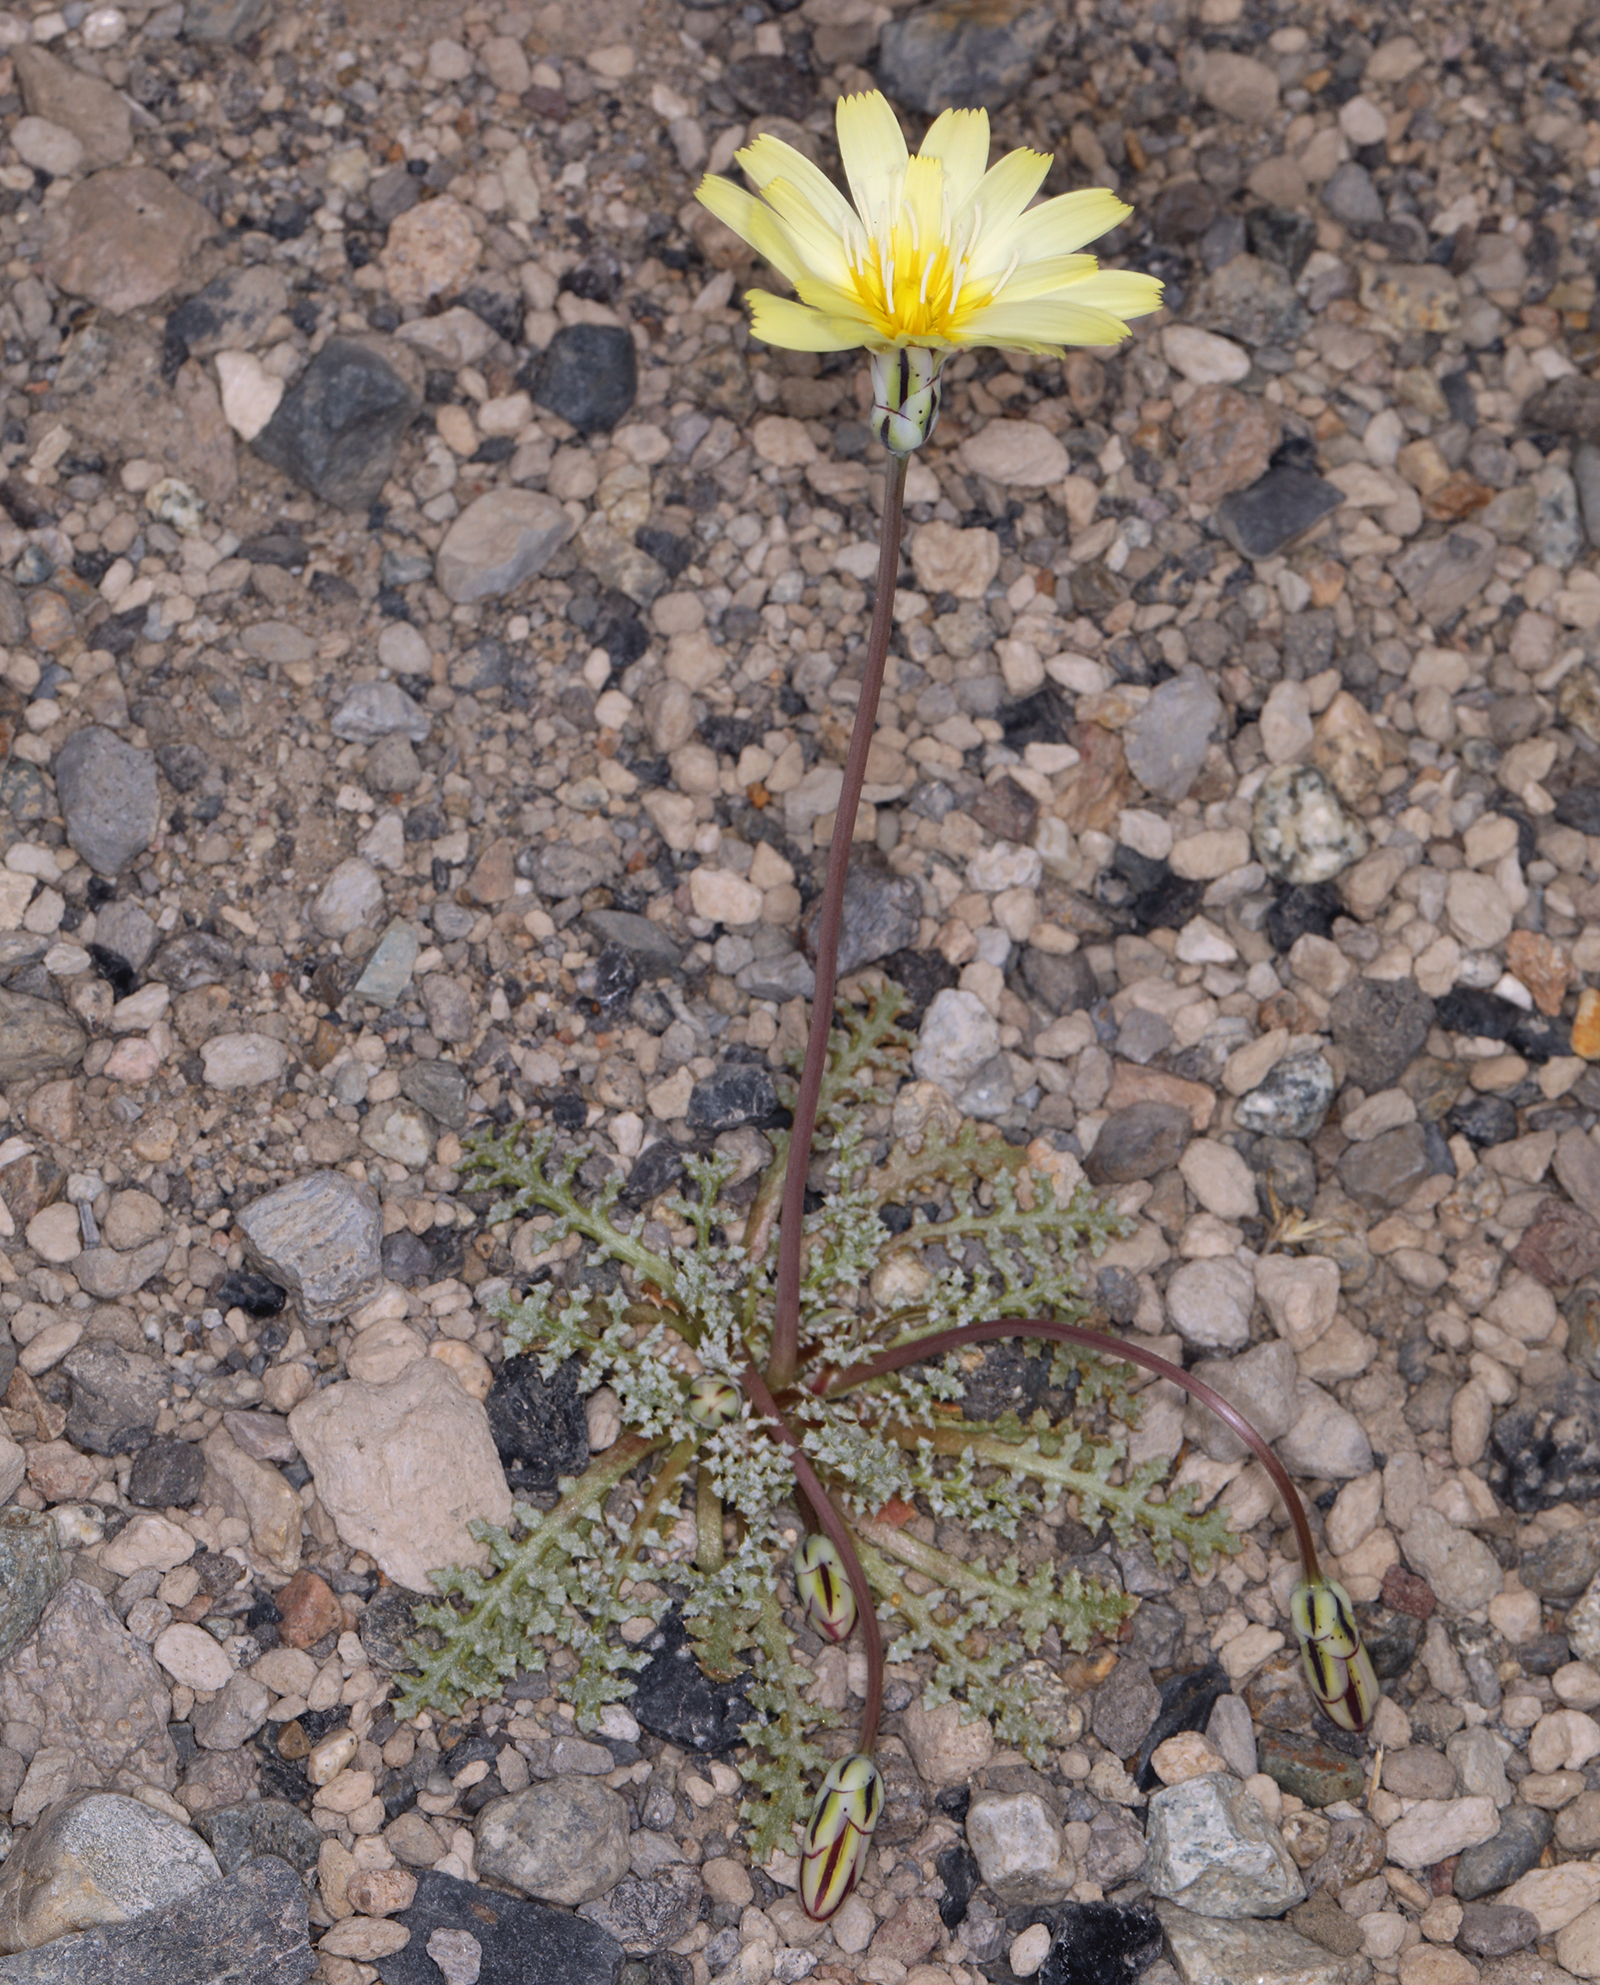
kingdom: Plantae
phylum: Tracheophyta
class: Magnoliopsida
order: Asterales
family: Asteraceae
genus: Anisocoma
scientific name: Anisocoma acaulis
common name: Scalebud
